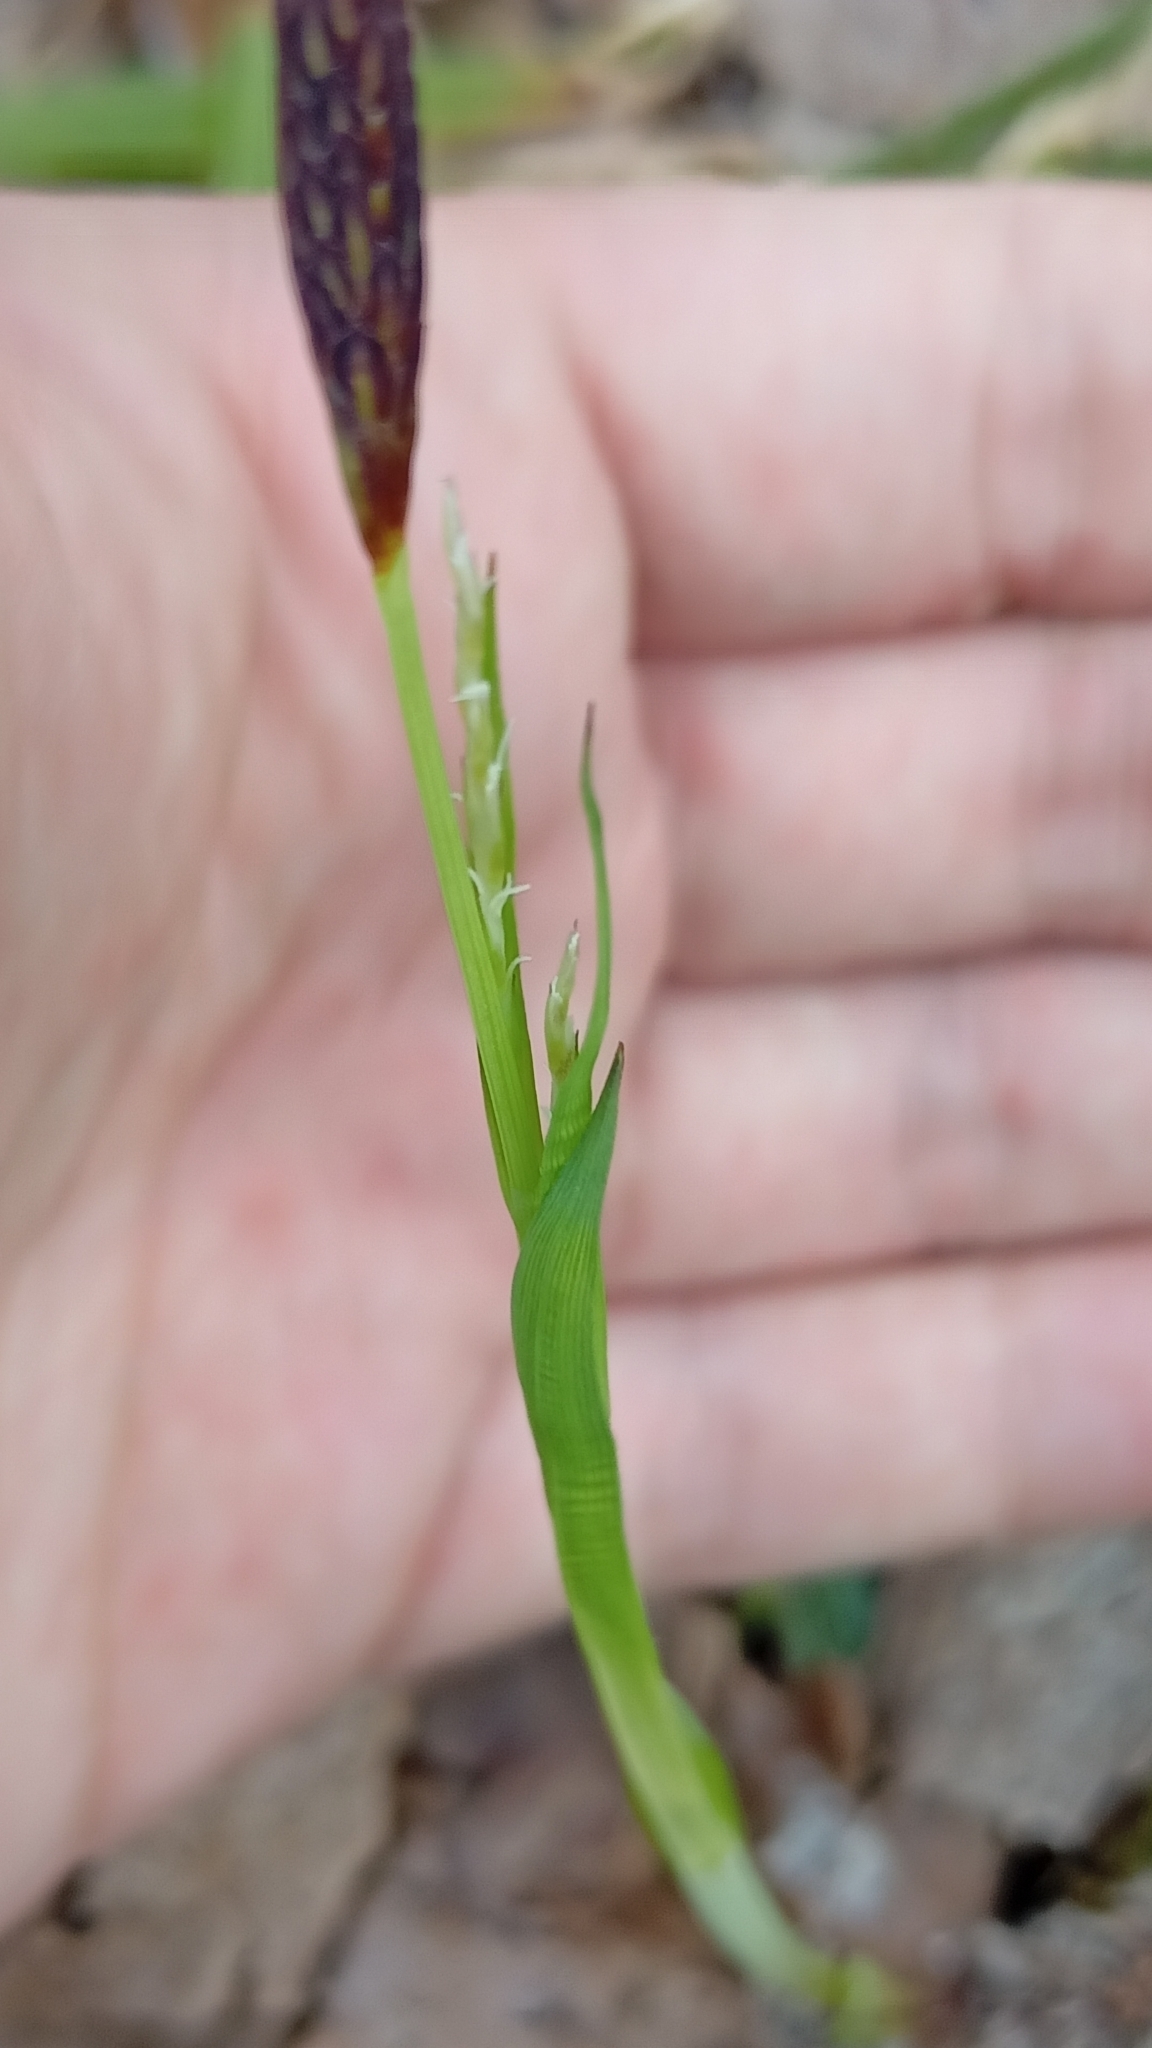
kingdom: Plantae
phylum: Tracheophyta
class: Liliopsida
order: Poales
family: Cyperaceae
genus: Carex
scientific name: Carex pilosa
